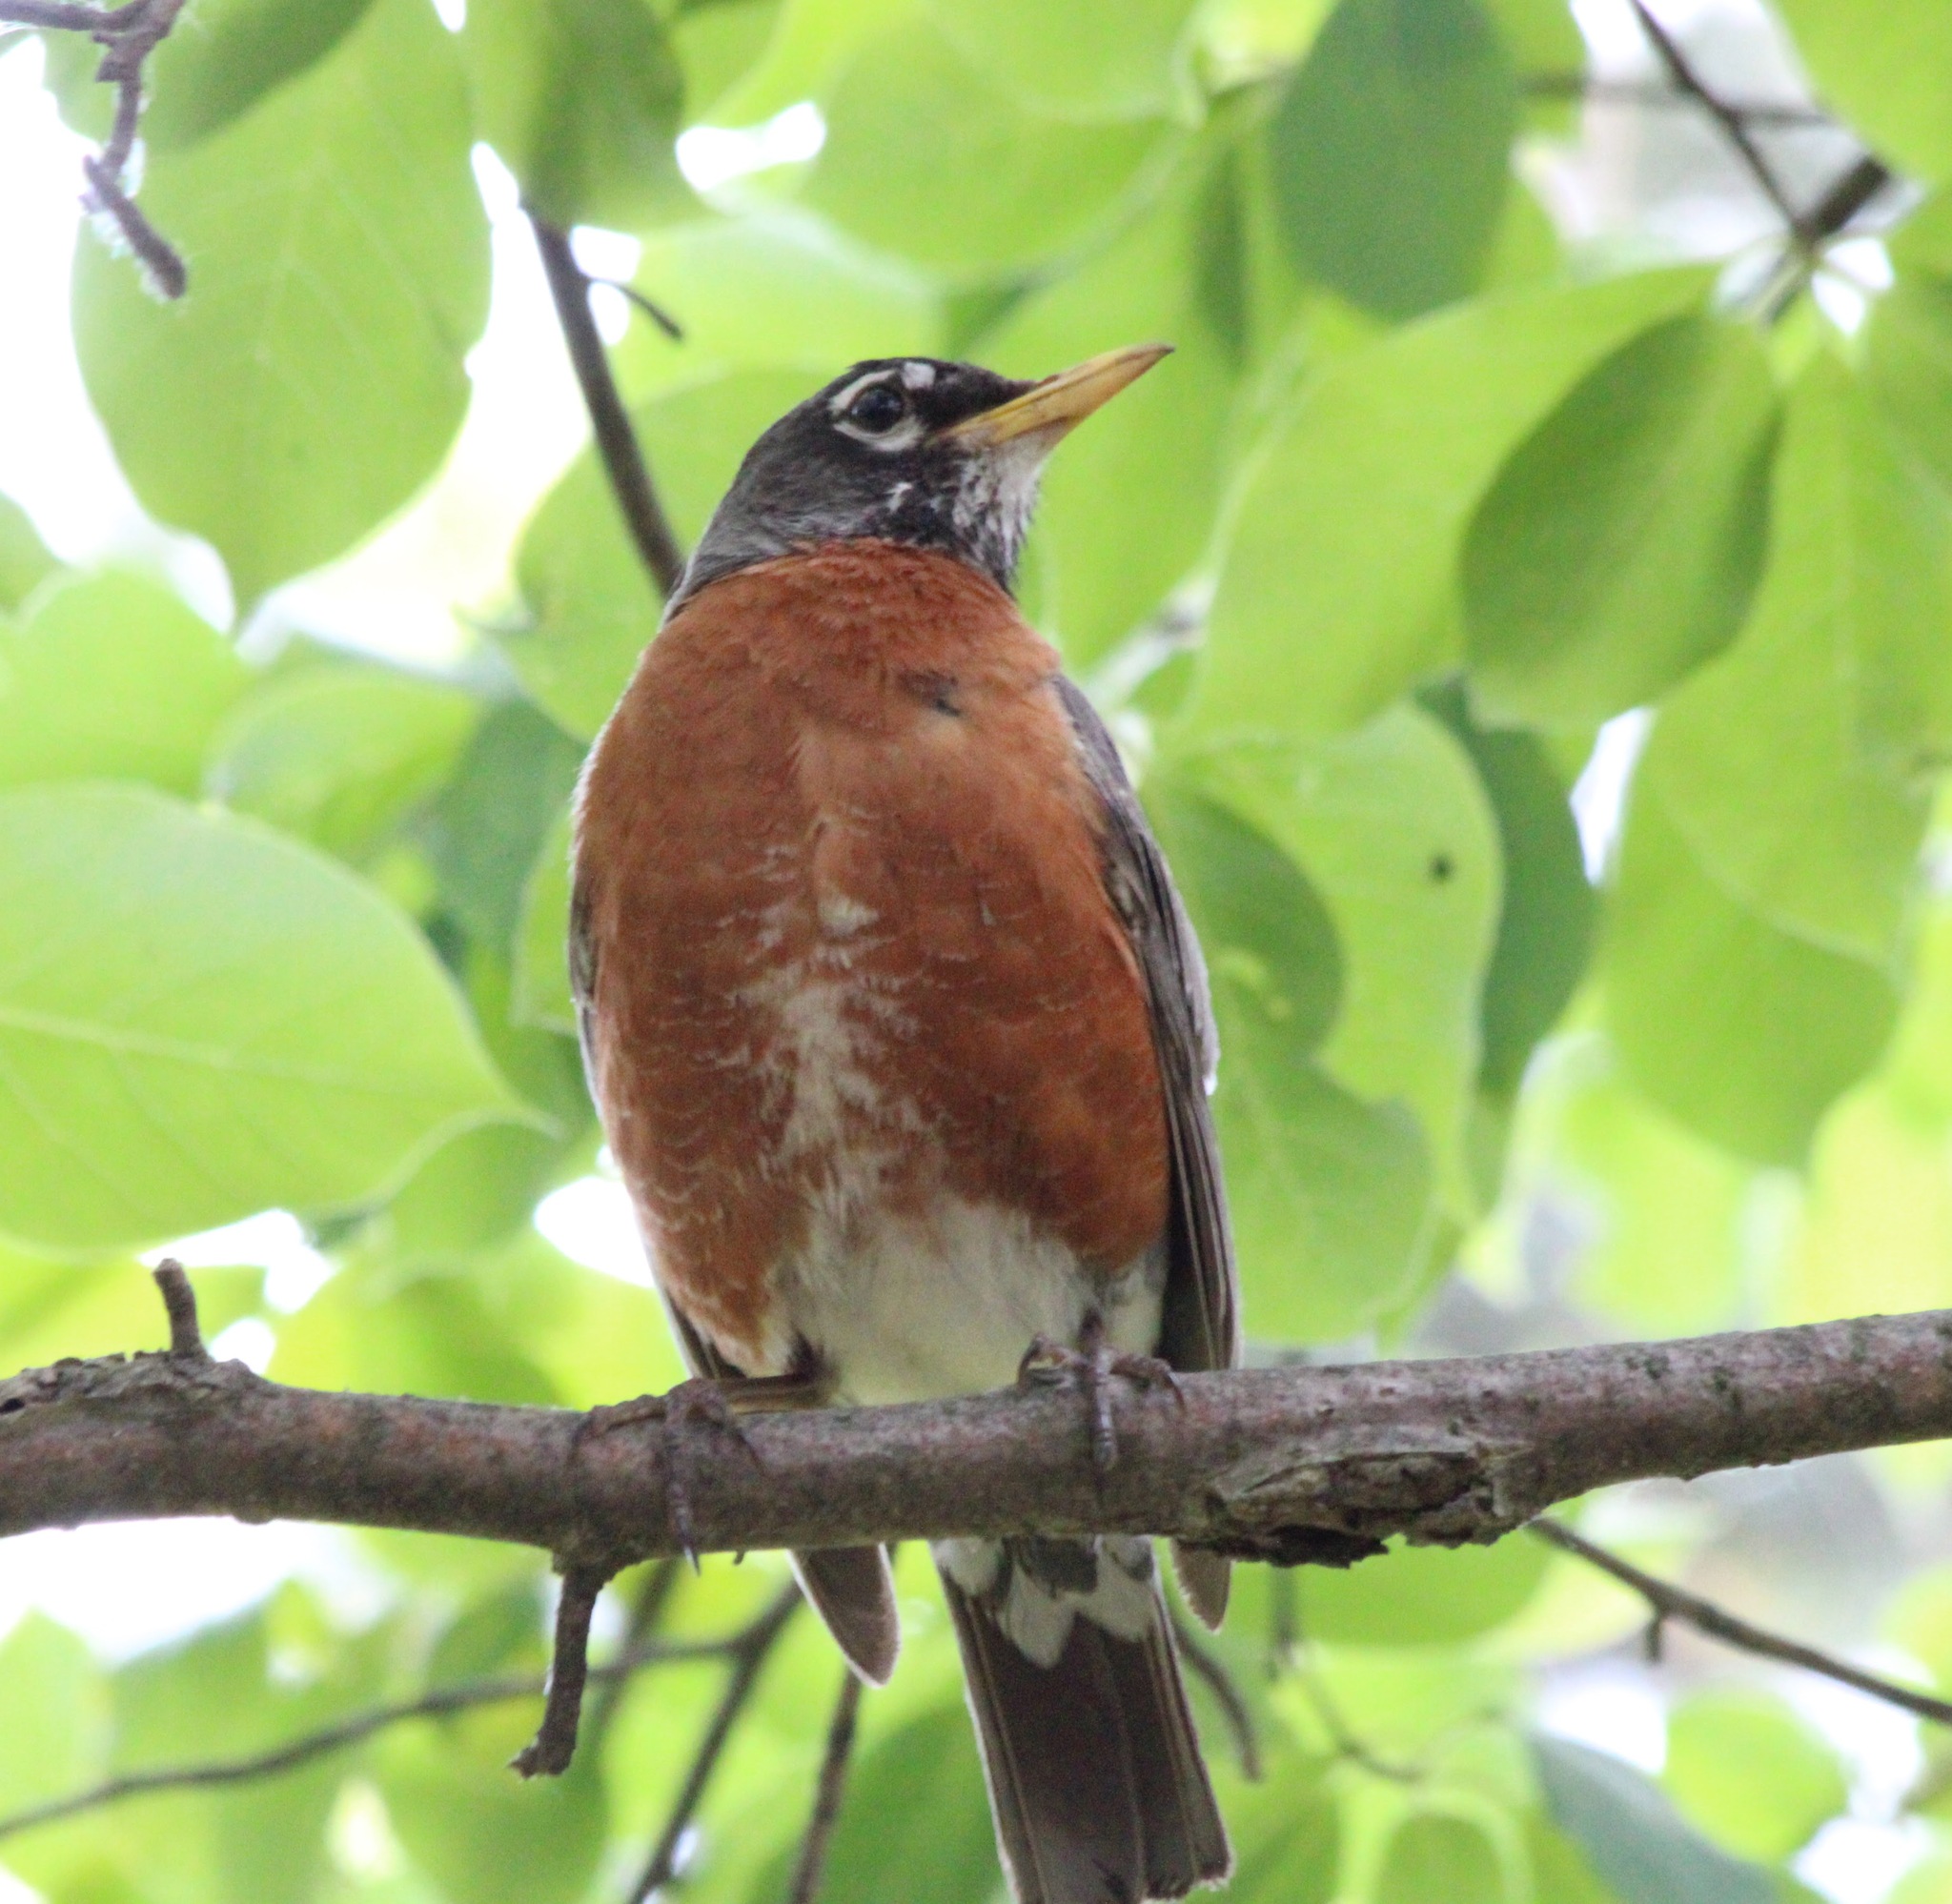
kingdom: Animalia
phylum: Chordata
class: Aves
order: Passeriformes
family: Turdidae
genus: Turdus
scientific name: Turdus migratorius
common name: American robin
